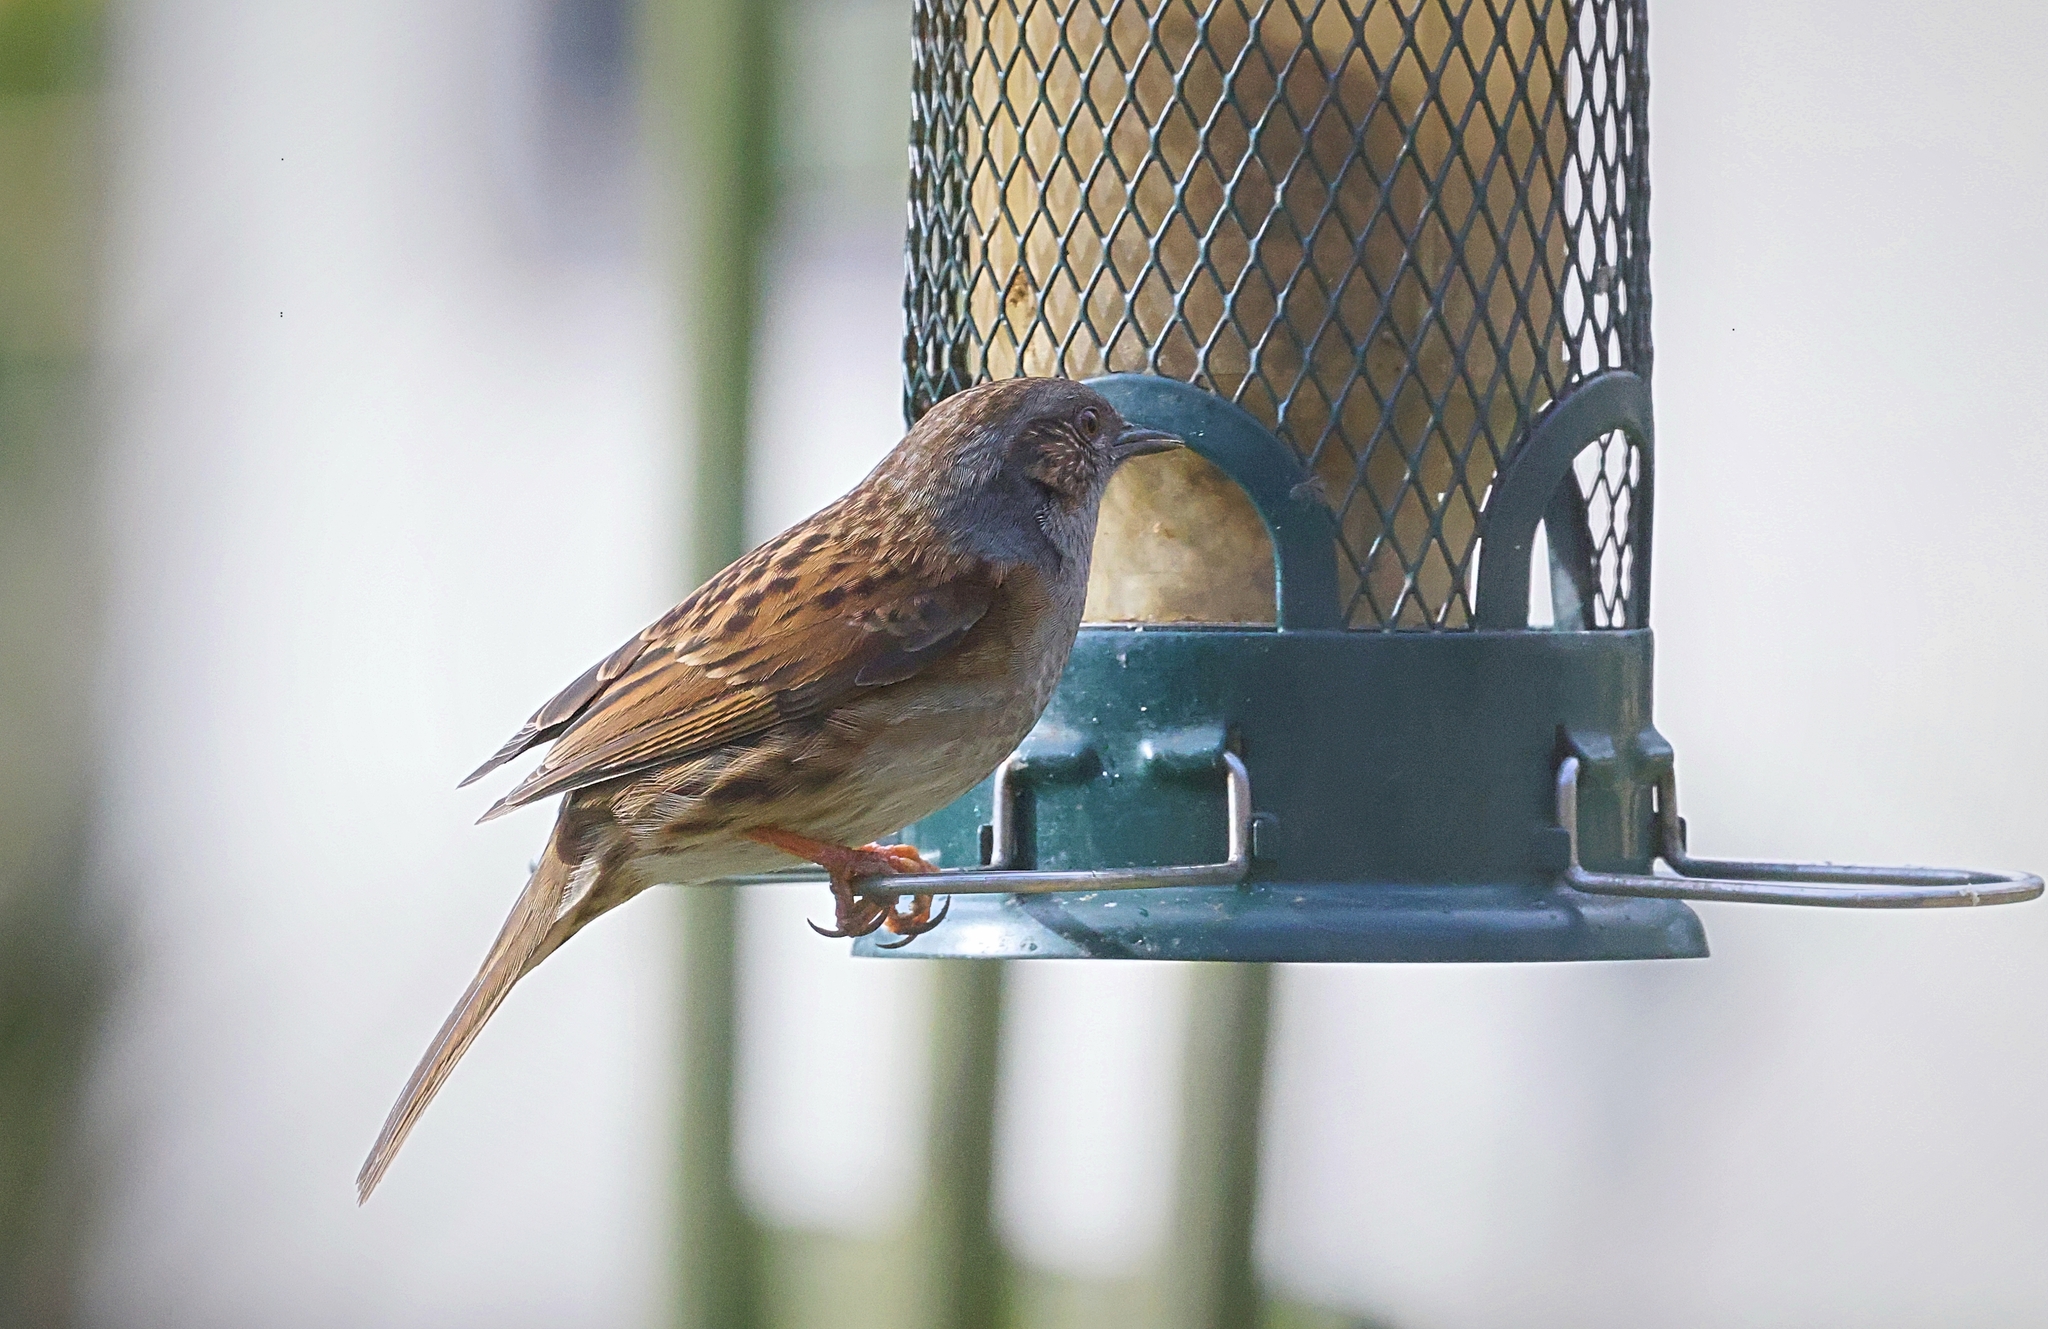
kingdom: Animalia
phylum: Chordata
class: Aves
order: Passeriformes
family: Prunellidae
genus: Prunella
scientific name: Prunella modularis
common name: Dunnock
